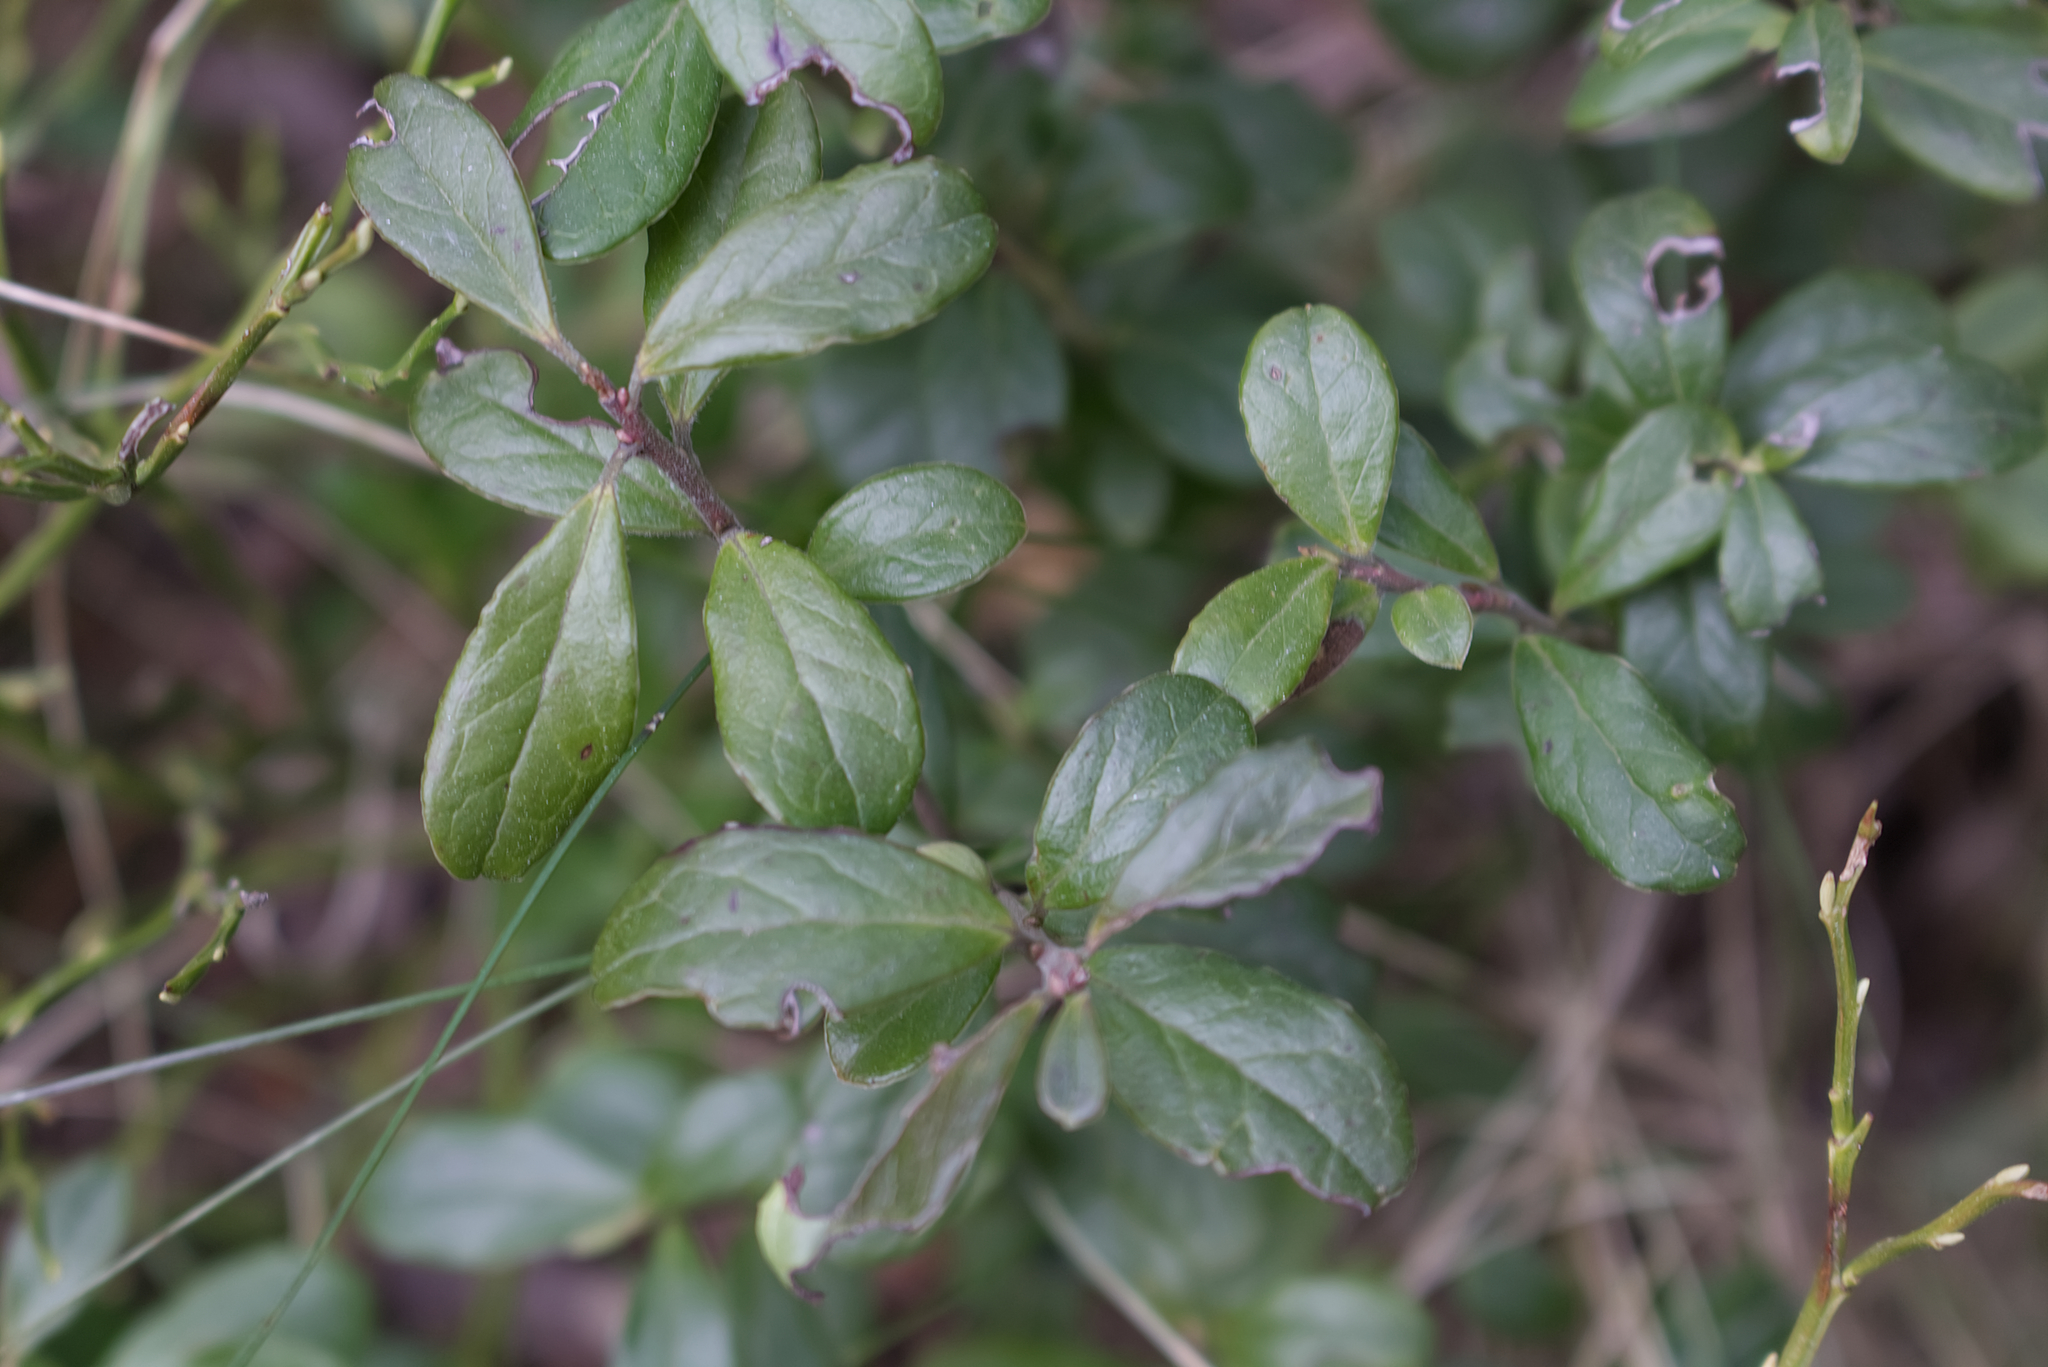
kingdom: Plantae
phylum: Tracheophyta
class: Magnoliopsida
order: Ericales
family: Ericaceae
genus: Vaccinium
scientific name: Vaccinium vitis-idaea
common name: Cowberry
